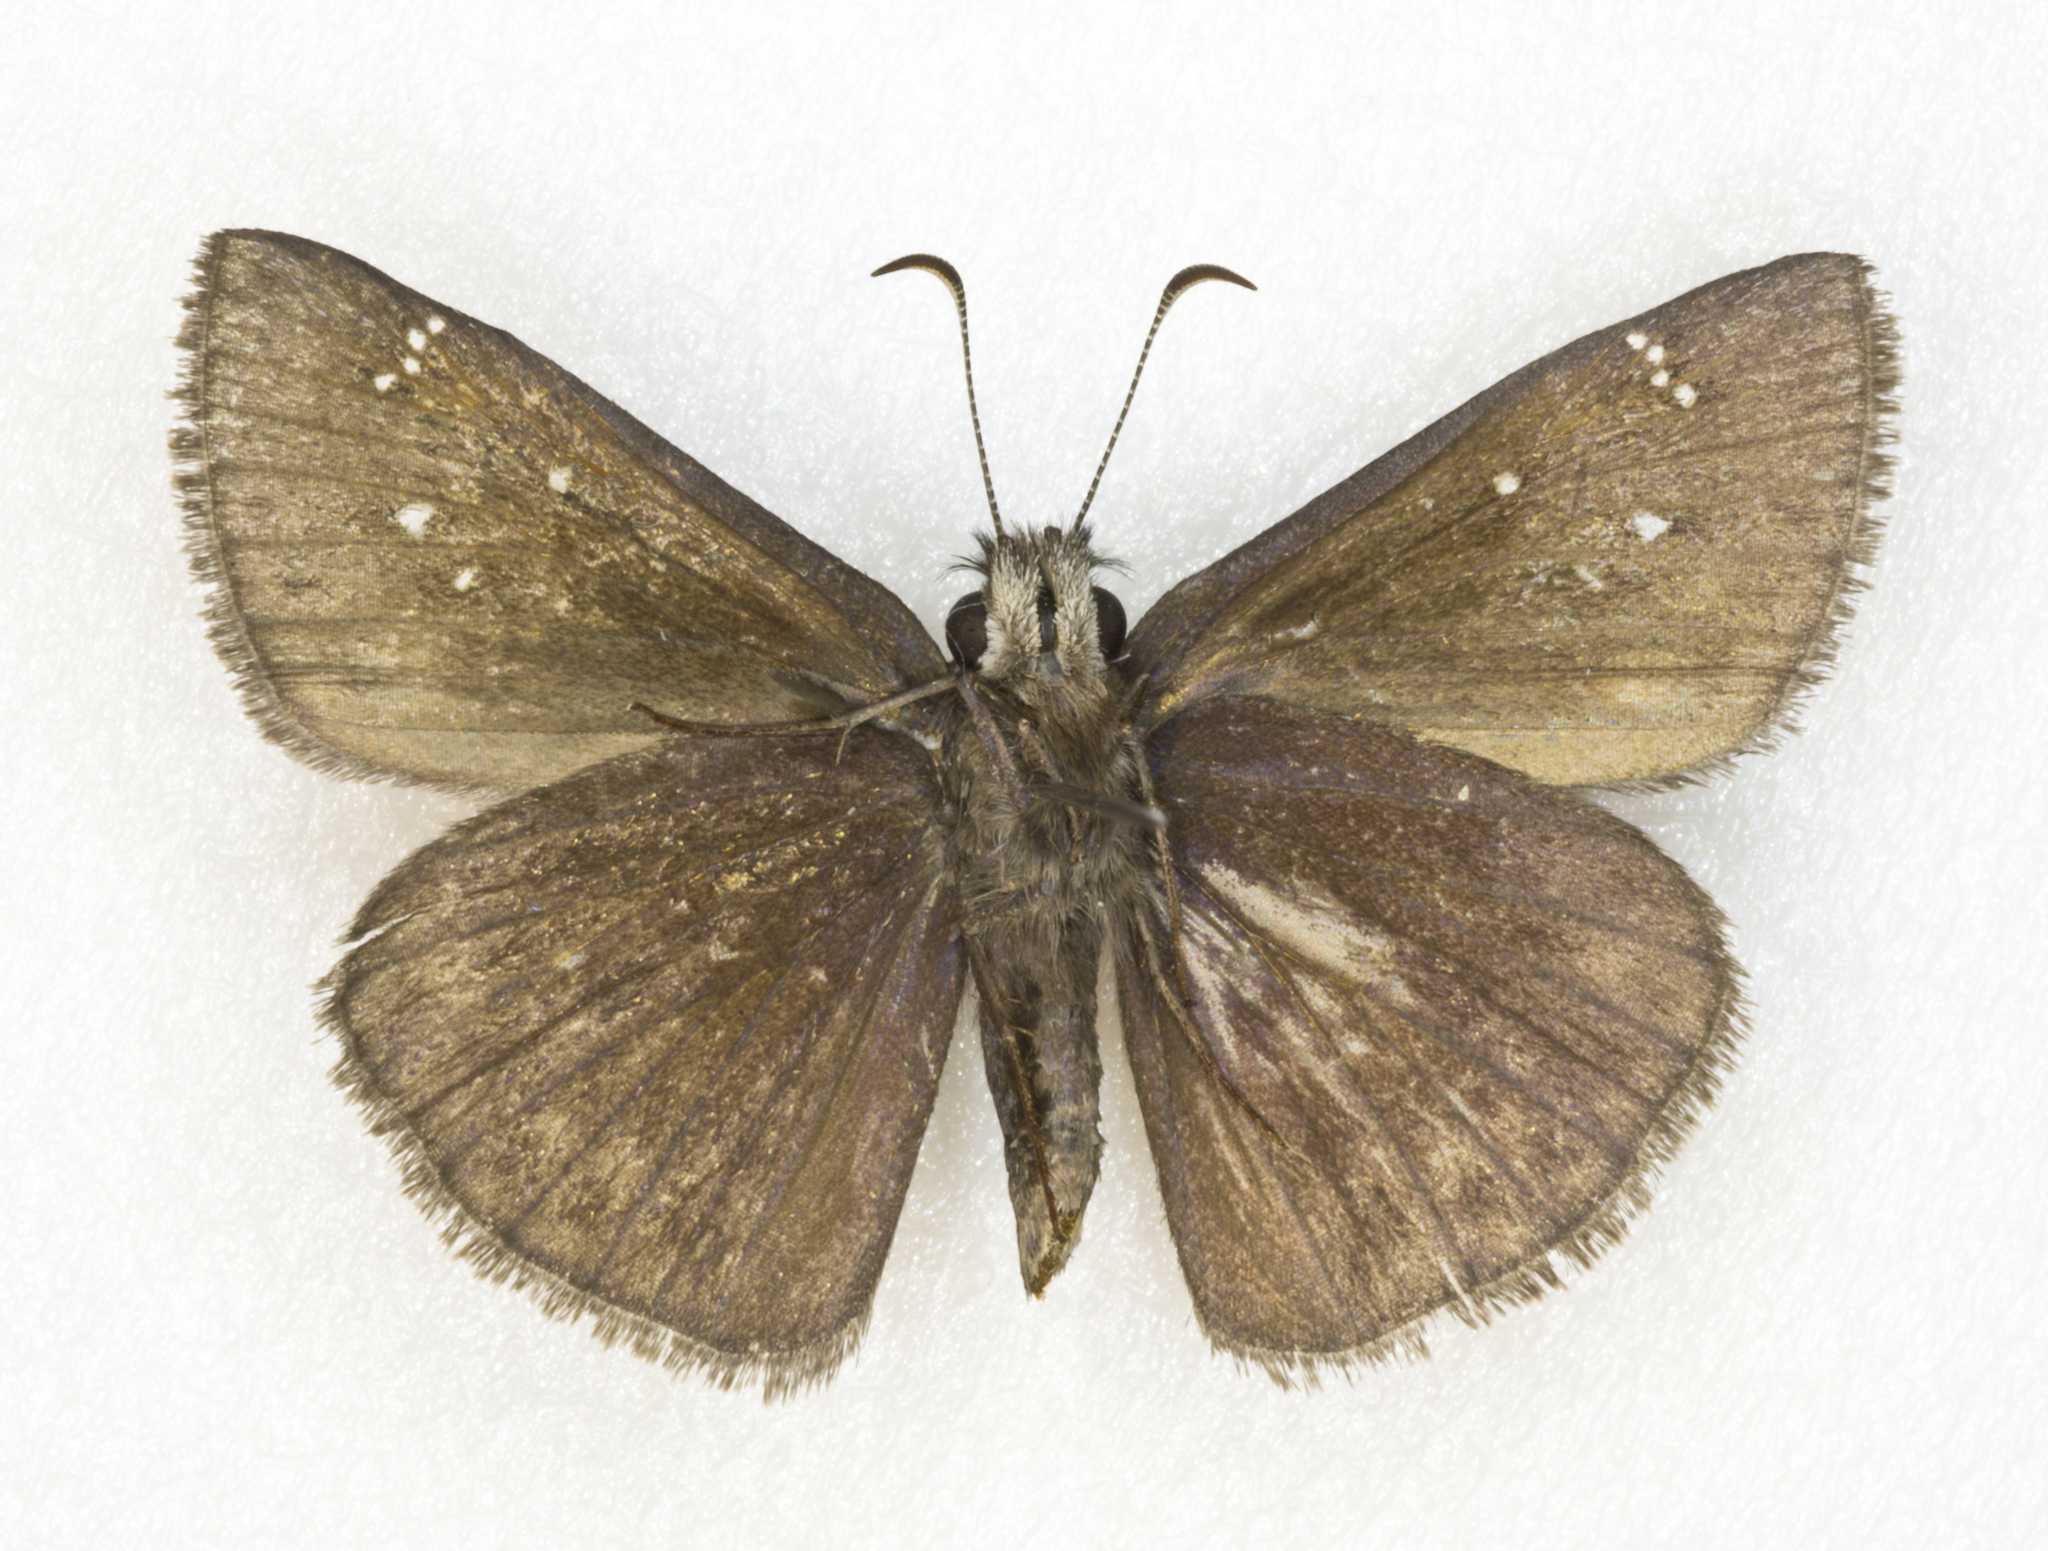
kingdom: Animalia
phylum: Arthropoda
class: Insecta
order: Lepidoptera
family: Hesperiidae
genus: Erynnis
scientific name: Erynnis meridianus
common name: Meridian duskywing
